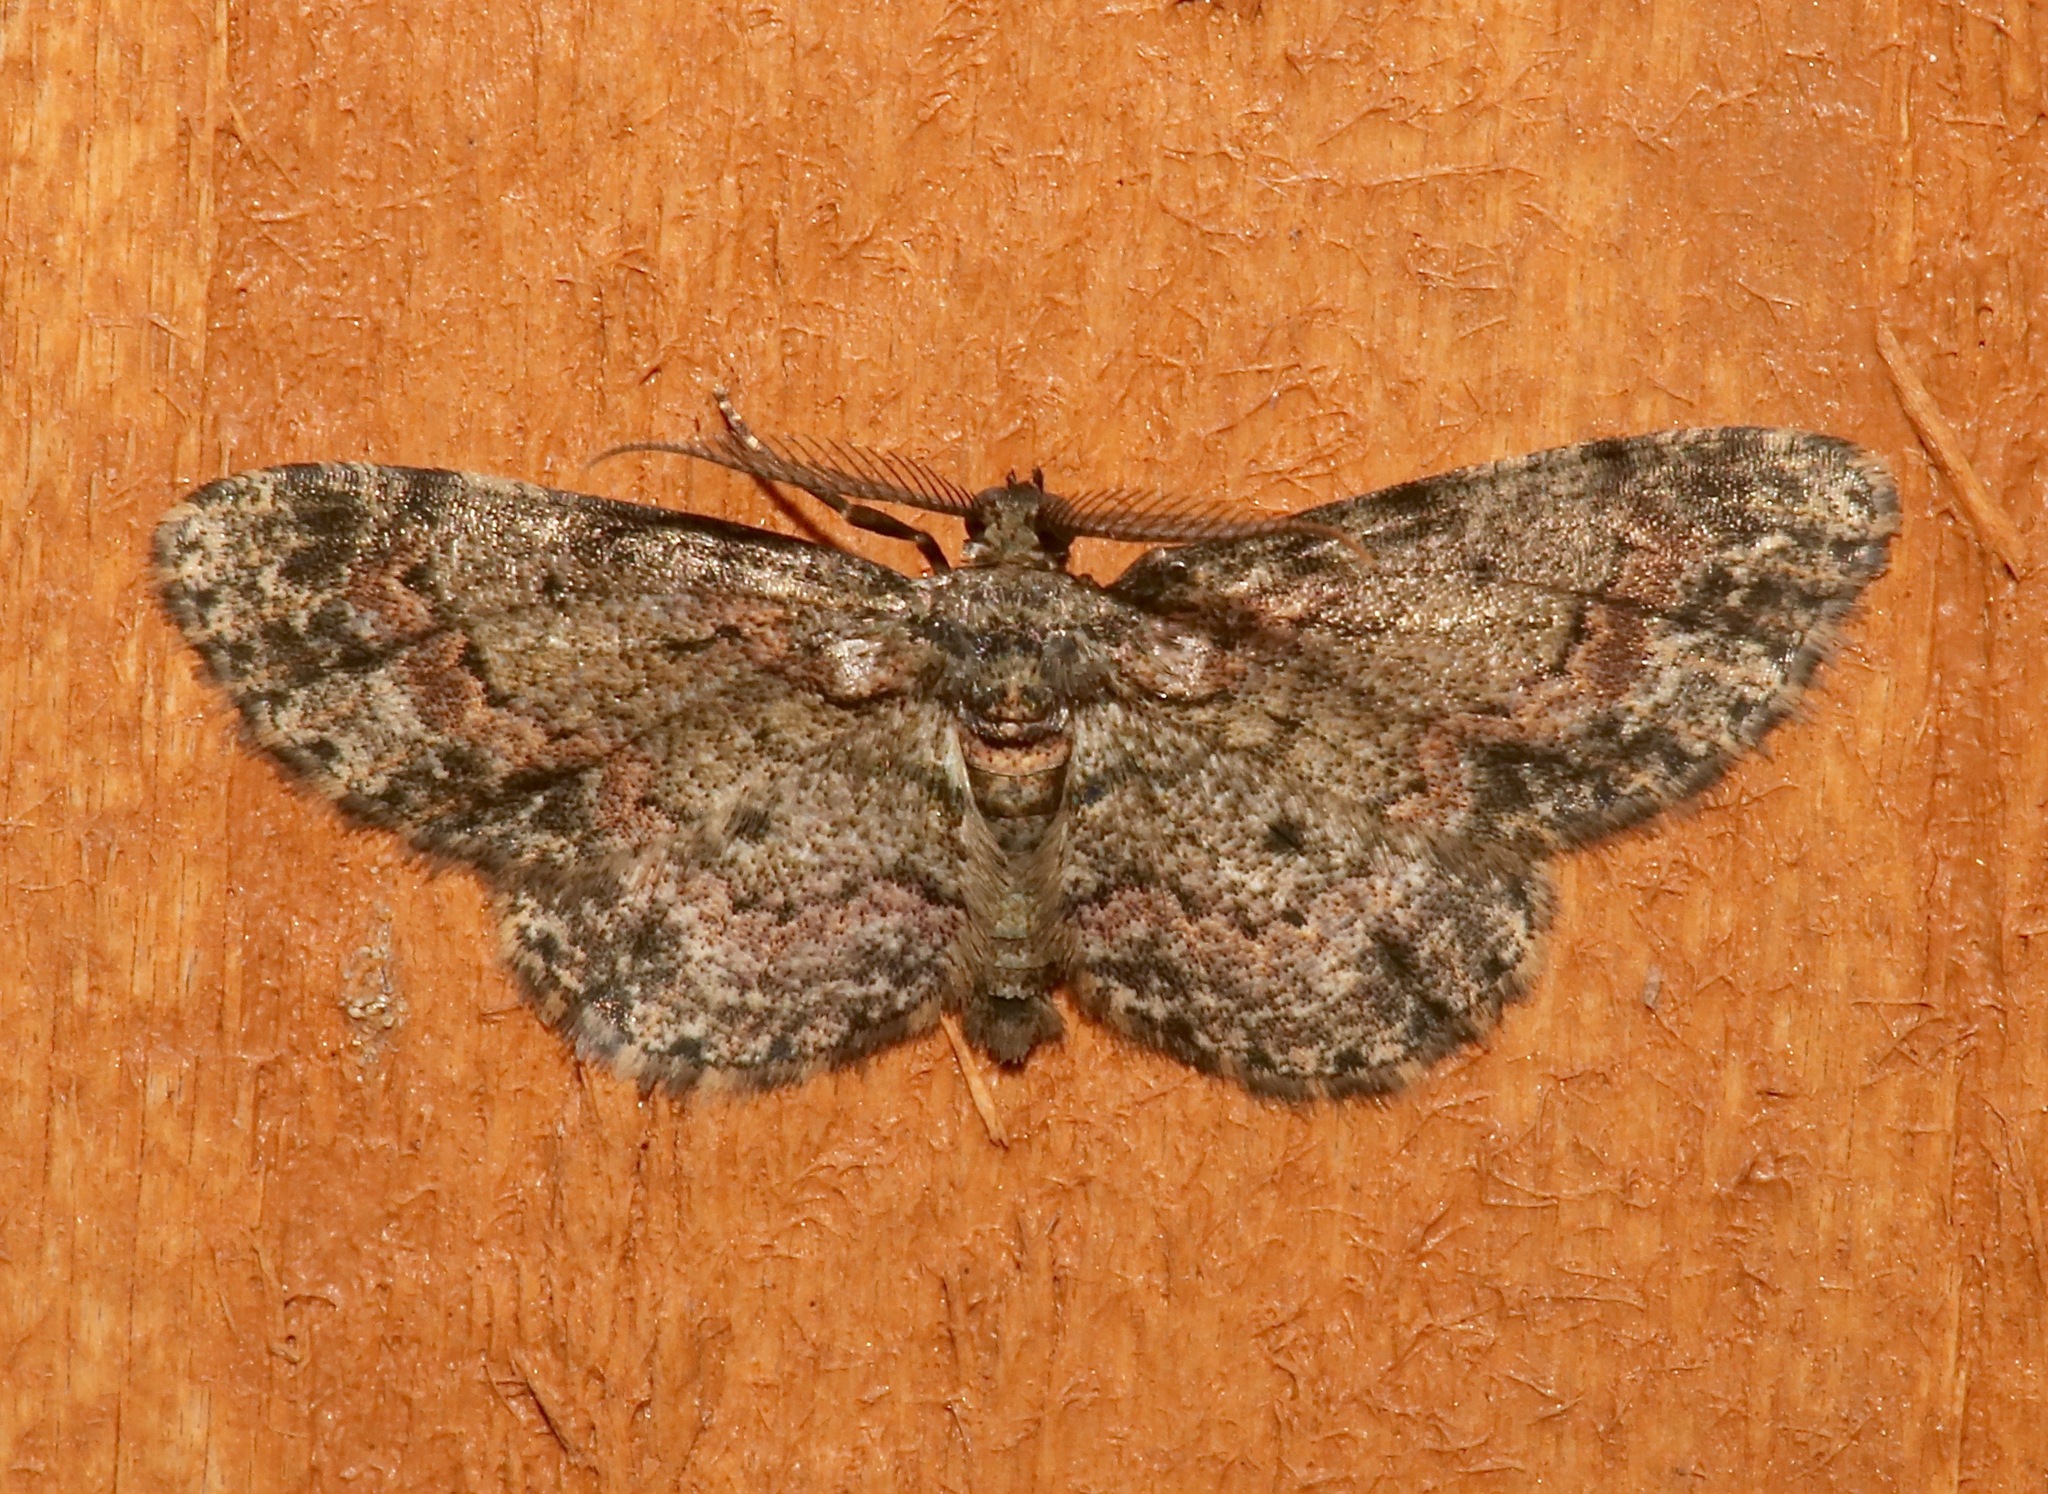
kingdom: Animalia
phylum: Arthropoda
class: Insecta
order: Lepidoptera
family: Geometridae
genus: Glenoides
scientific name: Glenoides texanaria
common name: Texas gray
